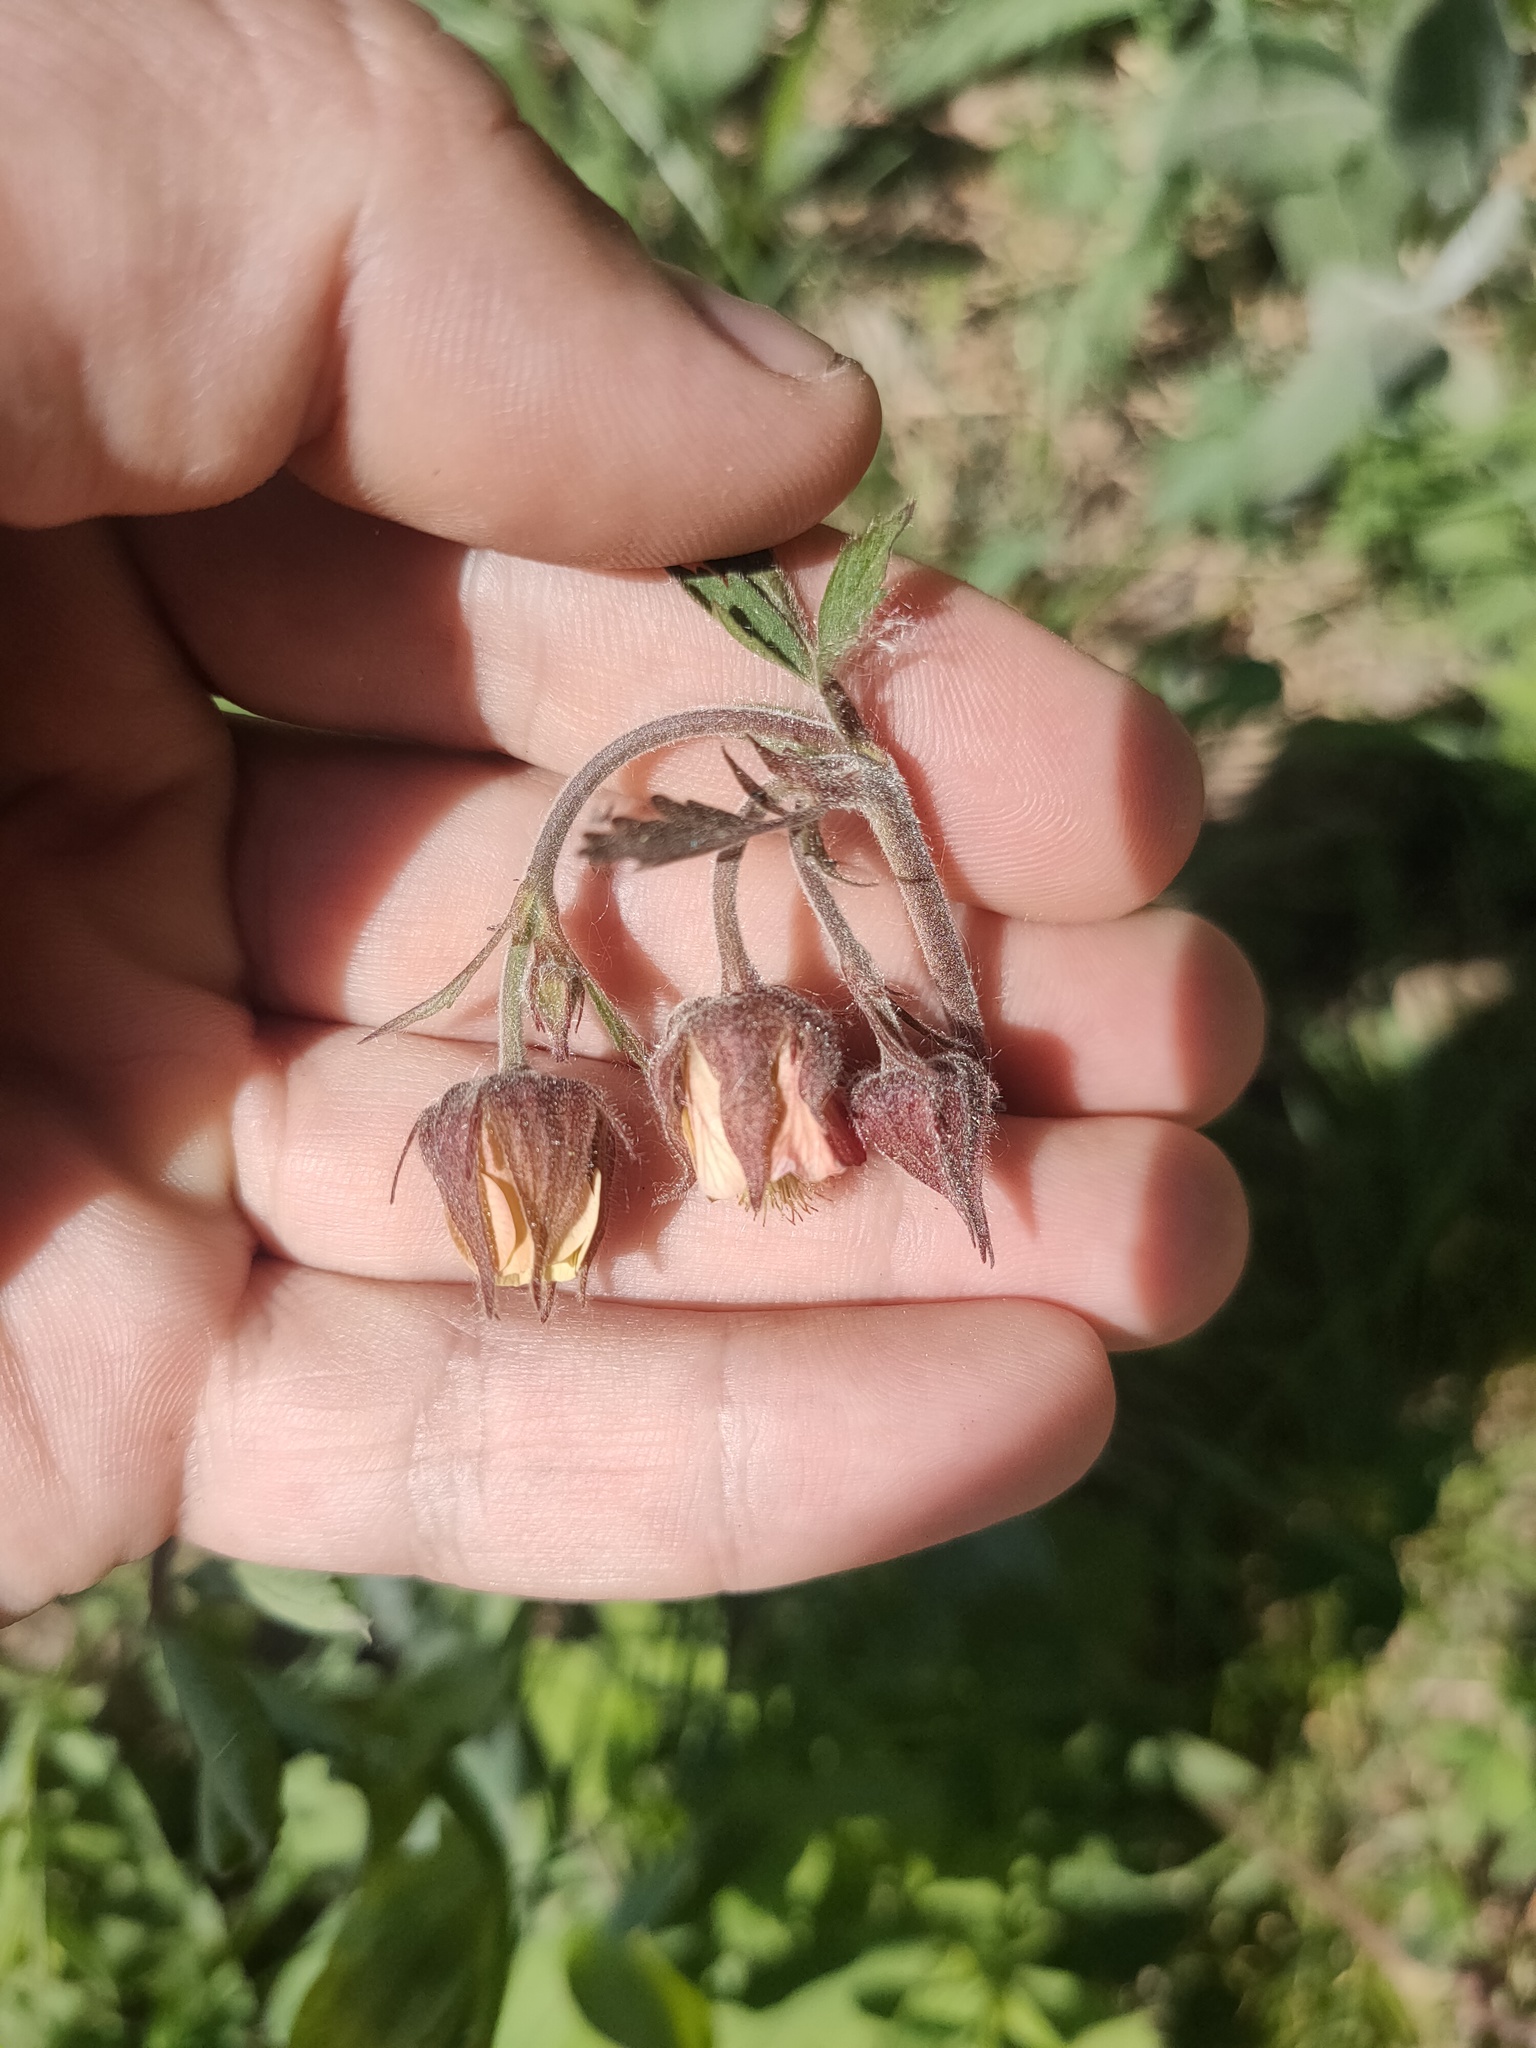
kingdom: Plantae
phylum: Tracheophyta
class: Magnoliopsida
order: Rosales
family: Rosaceae
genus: Geum
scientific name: Geum rivale
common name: Water avens
